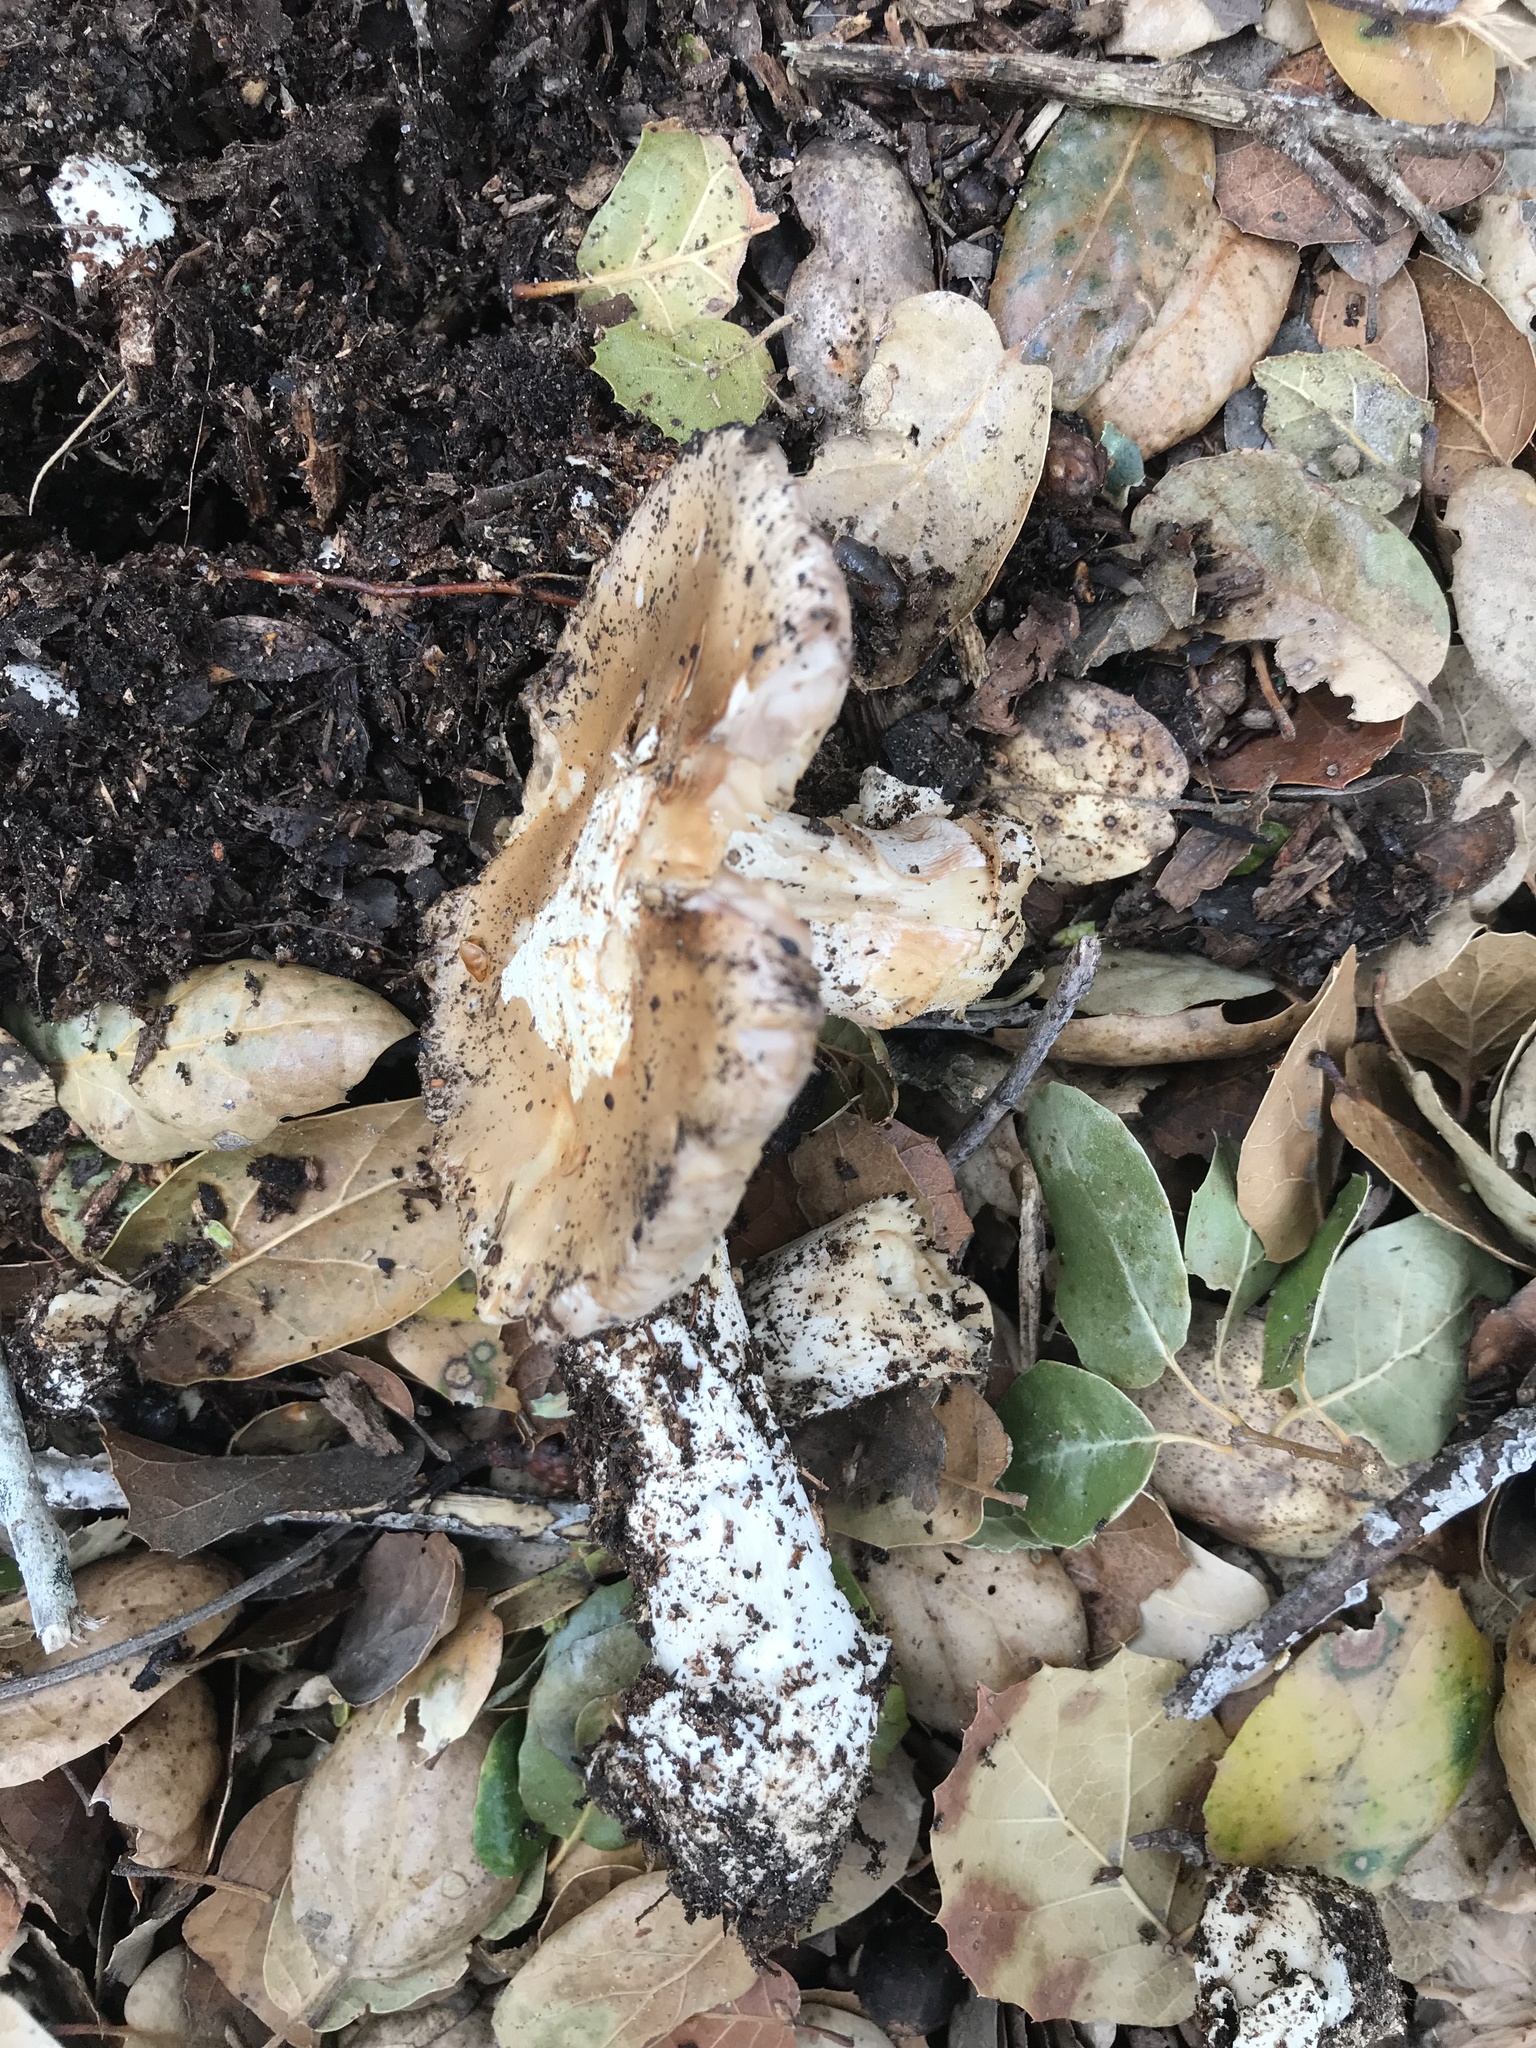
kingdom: Fungi
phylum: Basidiomycota
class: Agaricomycetes
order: Agaricales
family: Amanitaceae
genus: Amanita
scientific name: Amanita velosa
